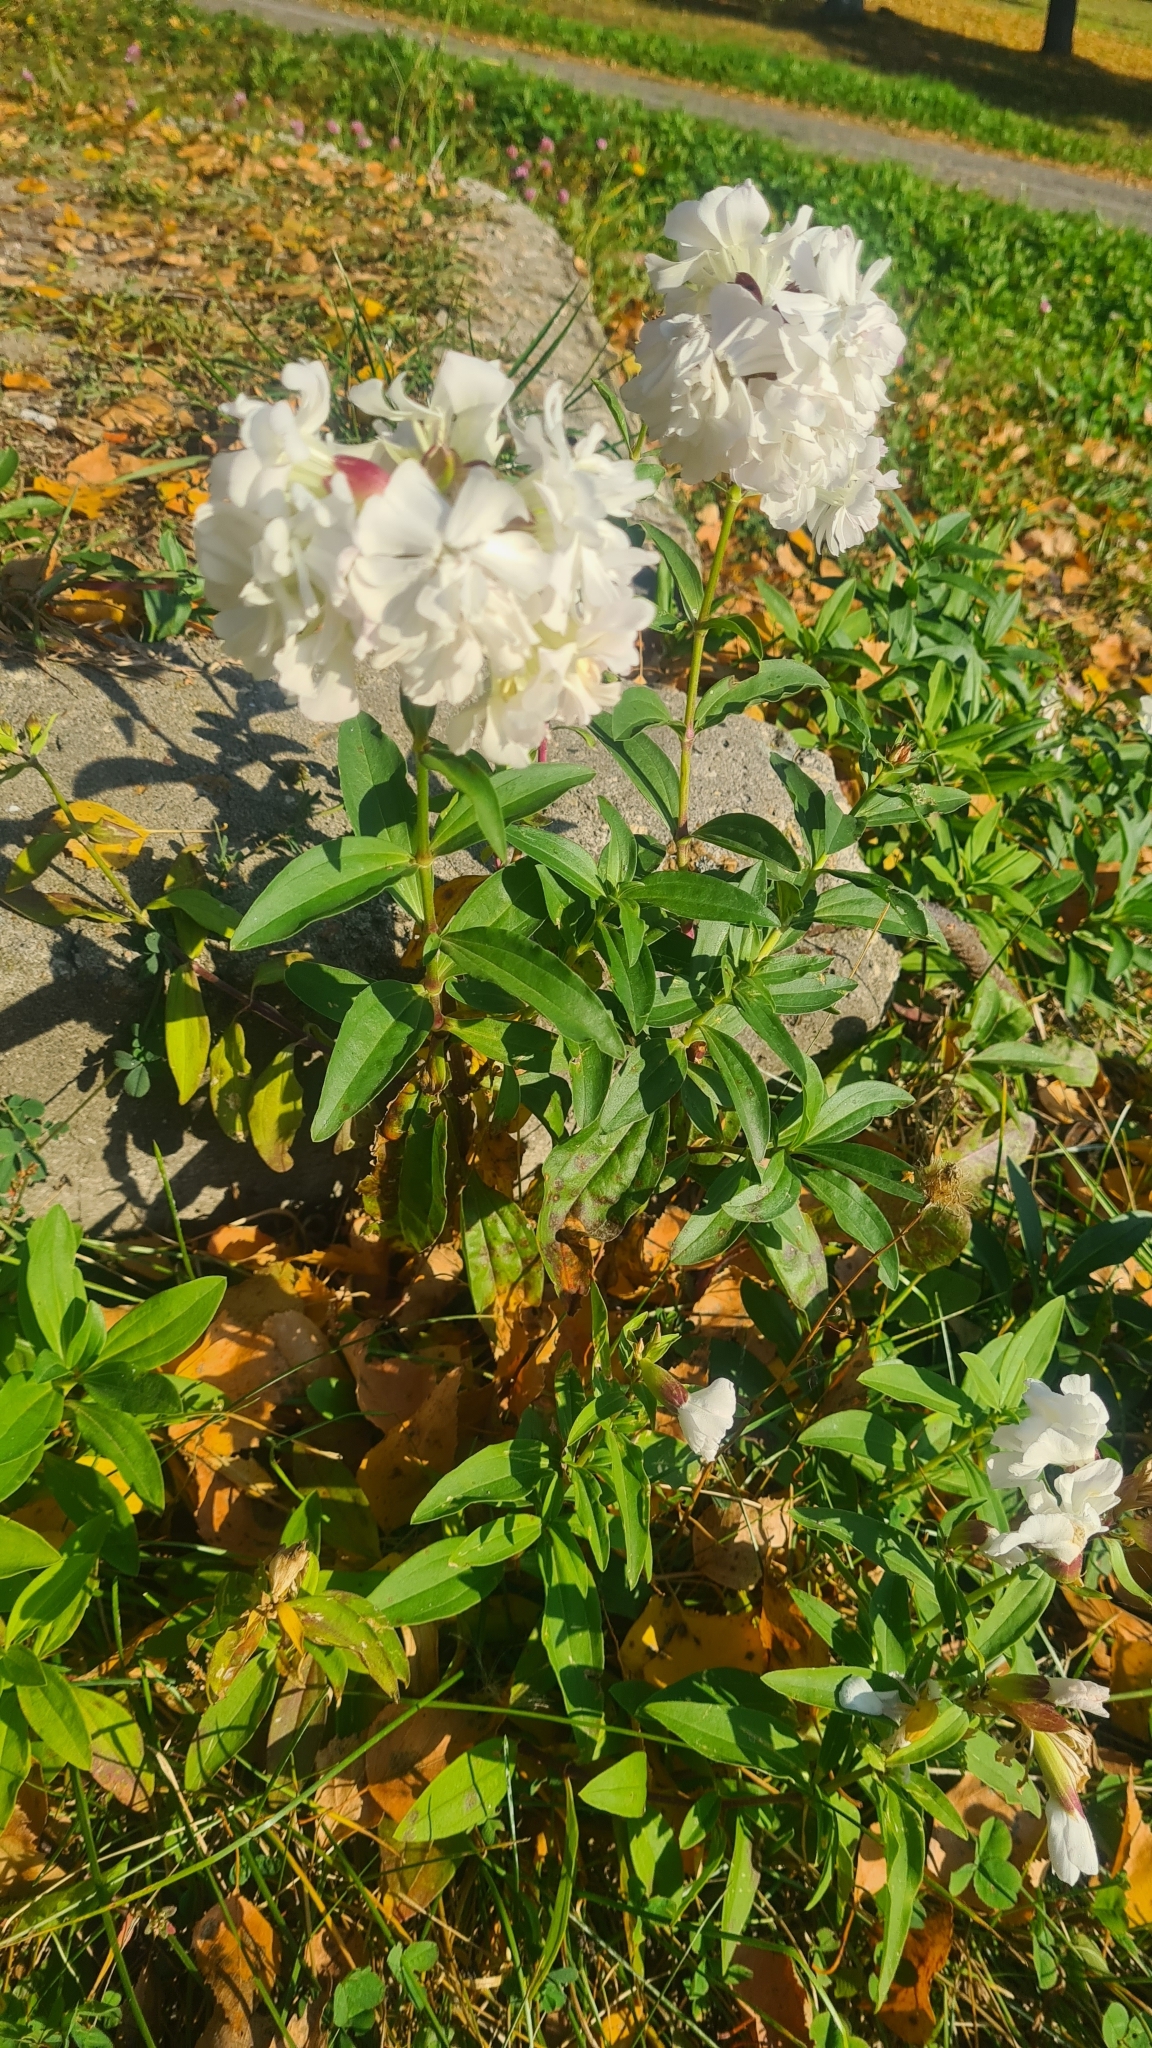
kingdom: Plantae
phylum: Tracheophyta
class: Magnoliopsida
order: Caryophyllales
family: Caryophyllaceae
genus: Saponaria
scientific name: Saponaria officinalis
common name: Soapwort
